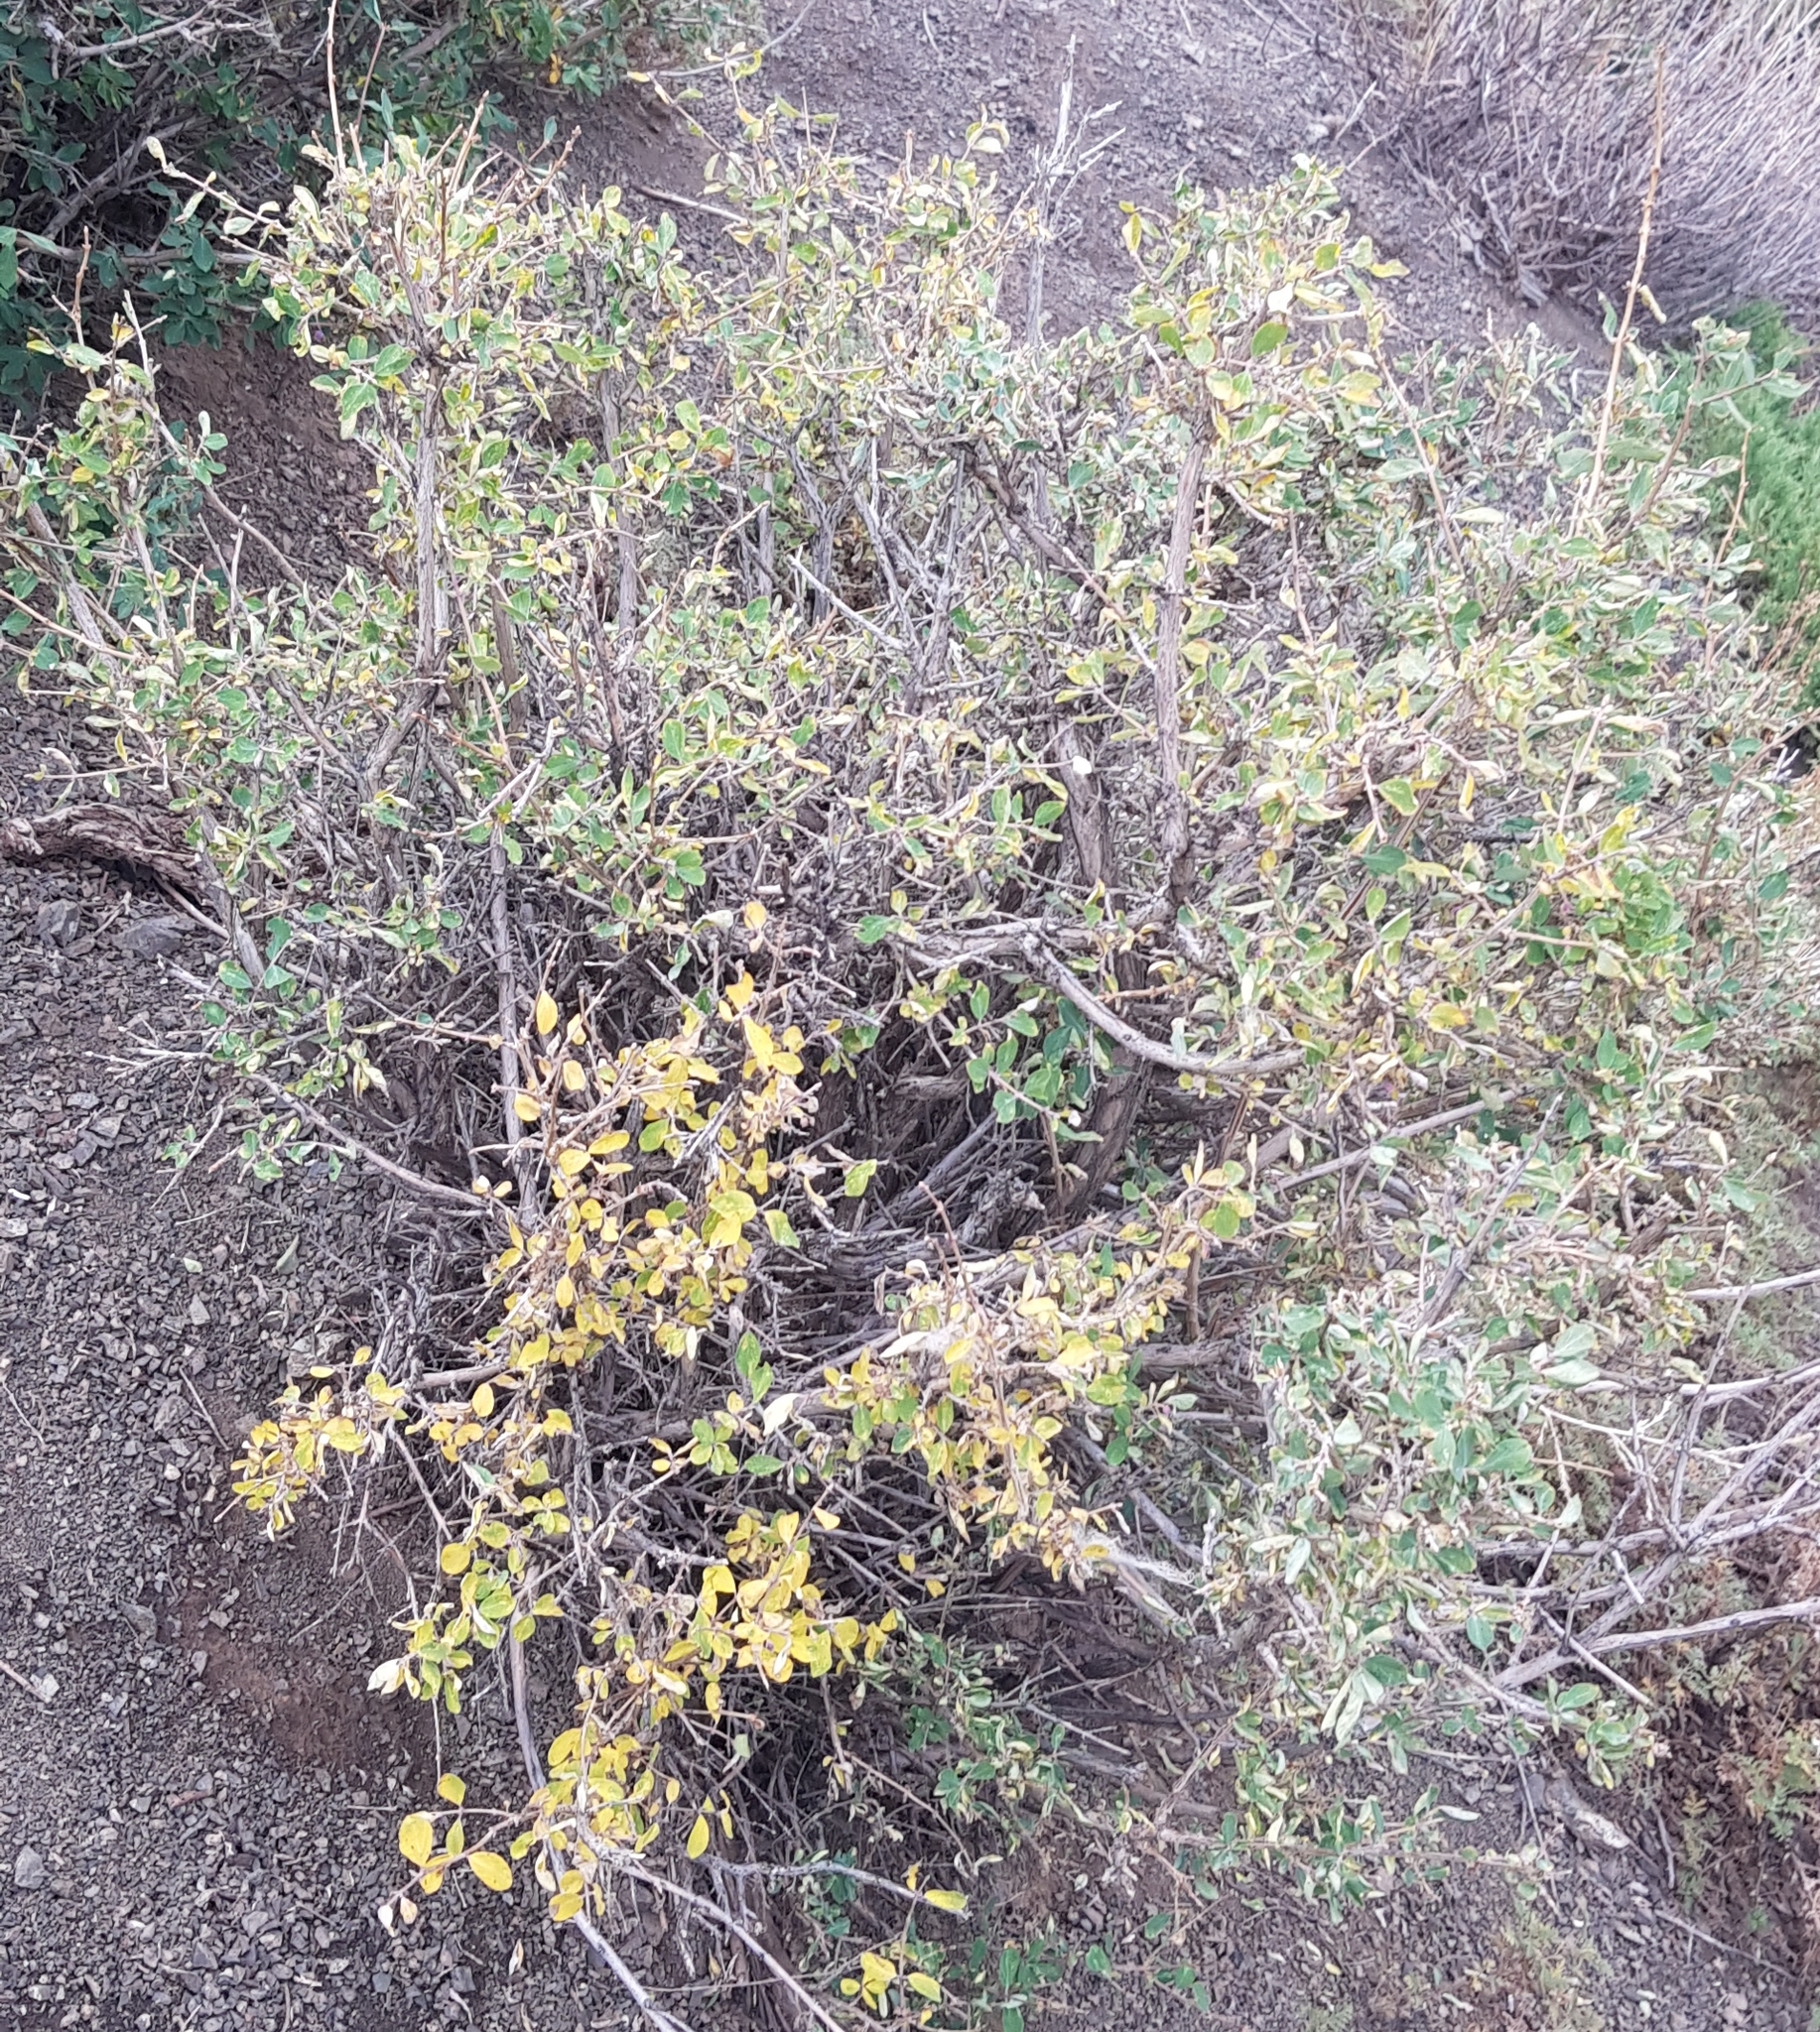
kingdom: Plantae
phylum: Tracheophyta
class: Magnoliopsida
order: Dipsacales
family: Caprifoliaceae
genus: Lonicera
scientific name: Lonicera microphylla
